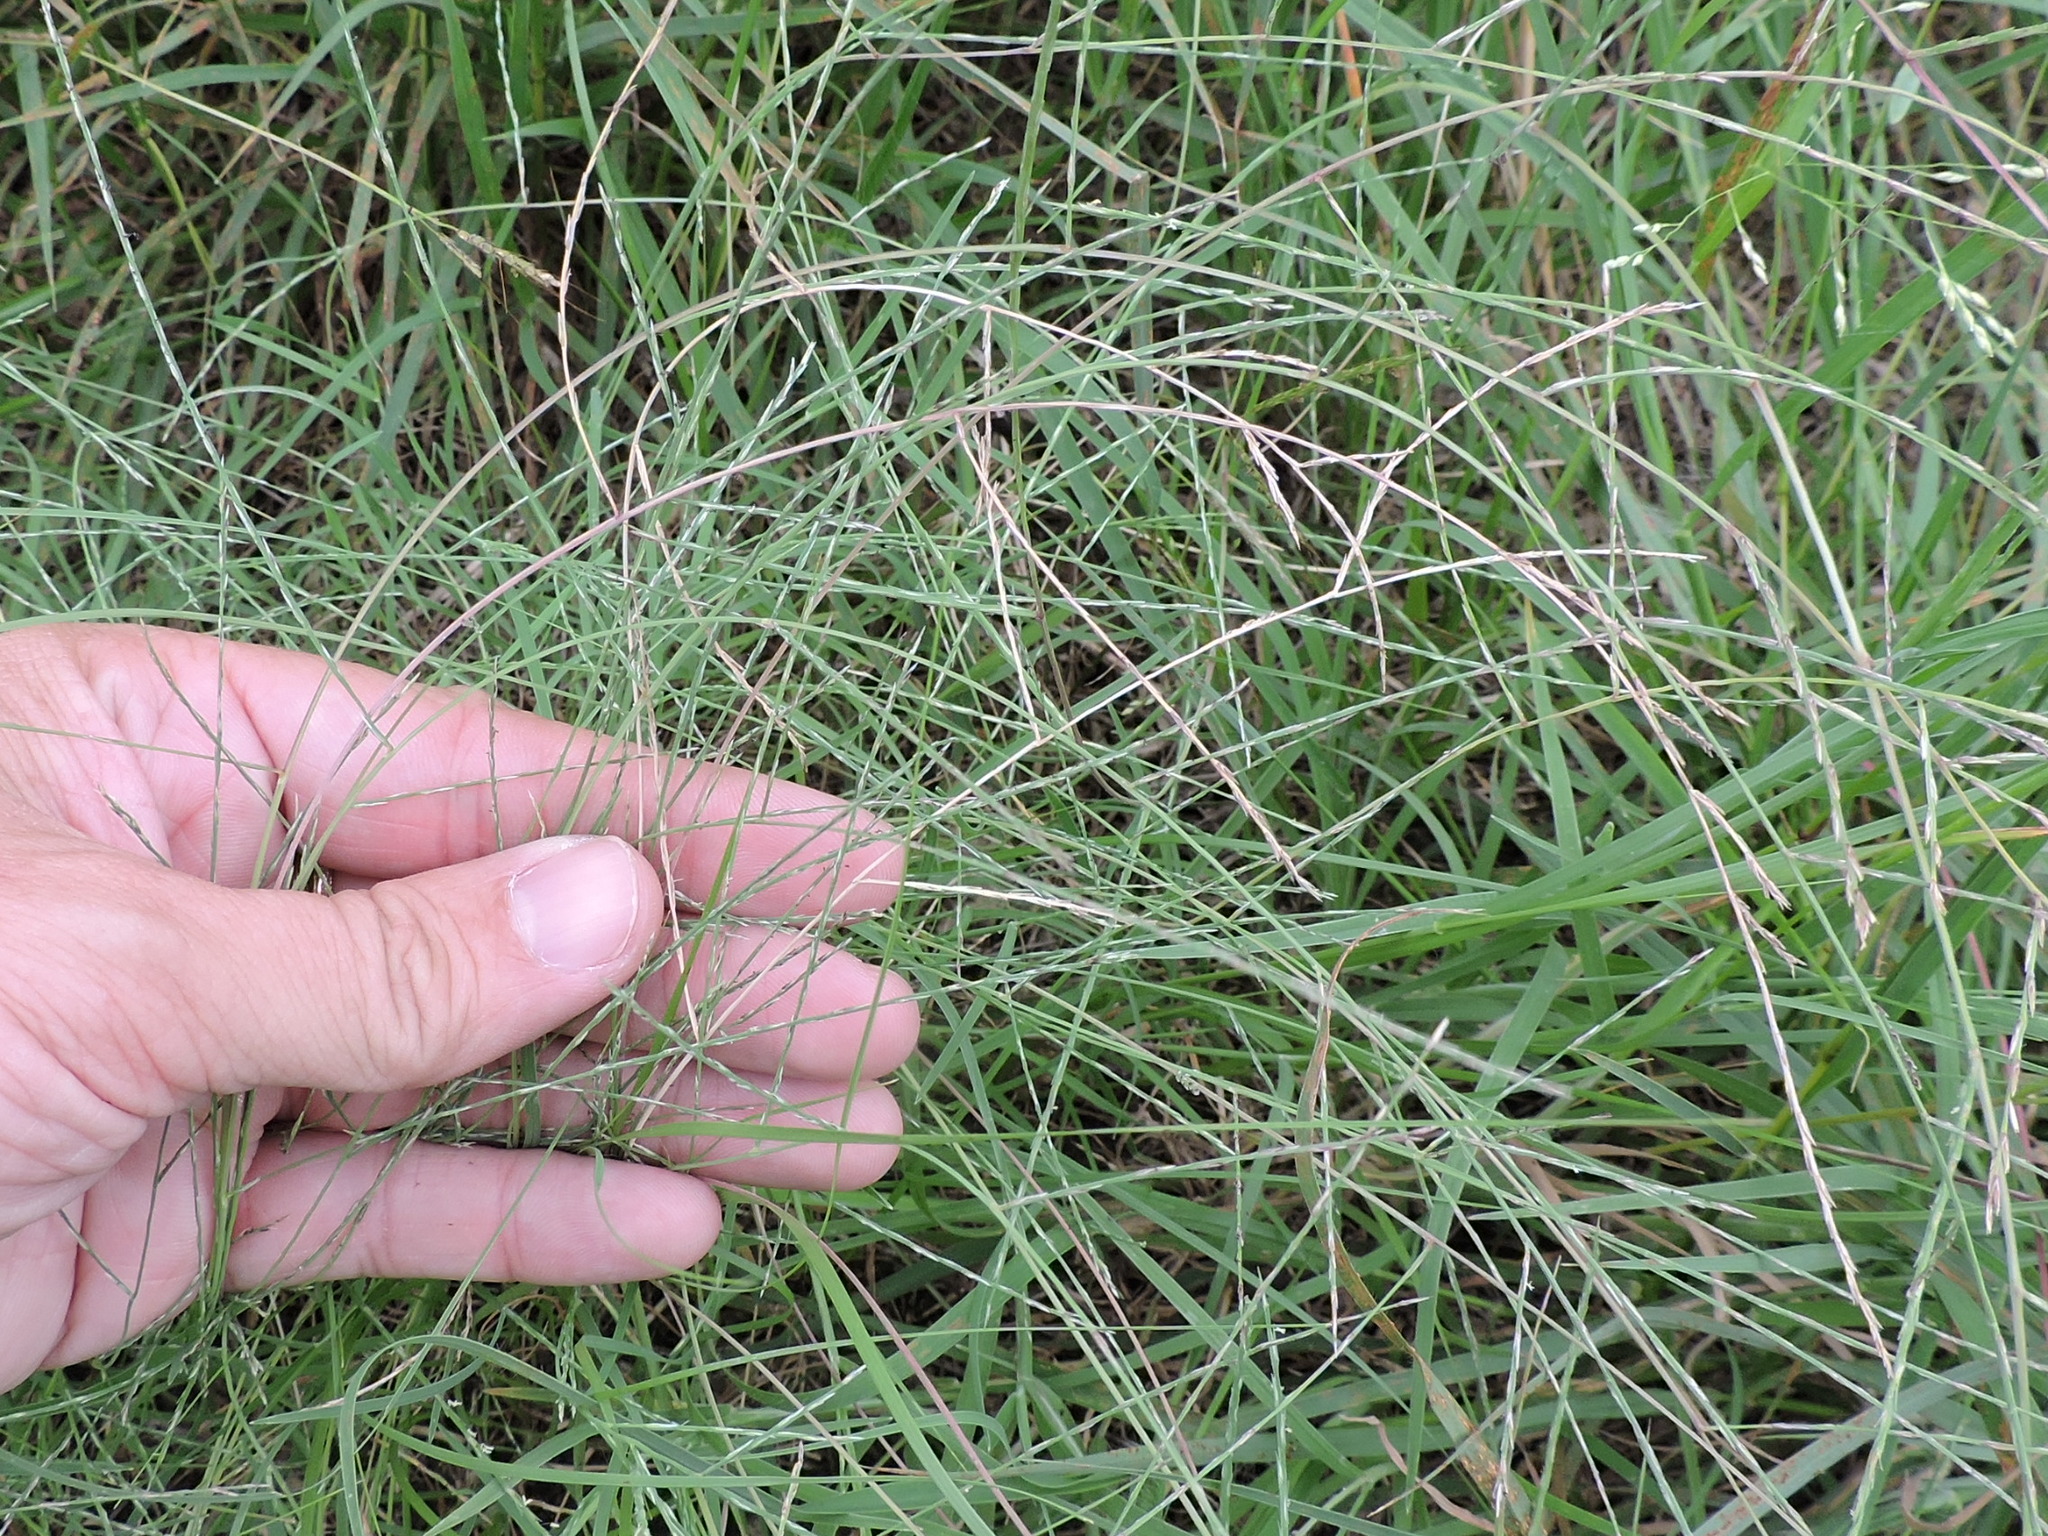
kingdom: Plantae
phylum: Tracheophyta
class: Liliopsida
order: Poales
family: Poaceae
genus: Muhlenbergia
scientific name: Muhlenbergia paniculata
